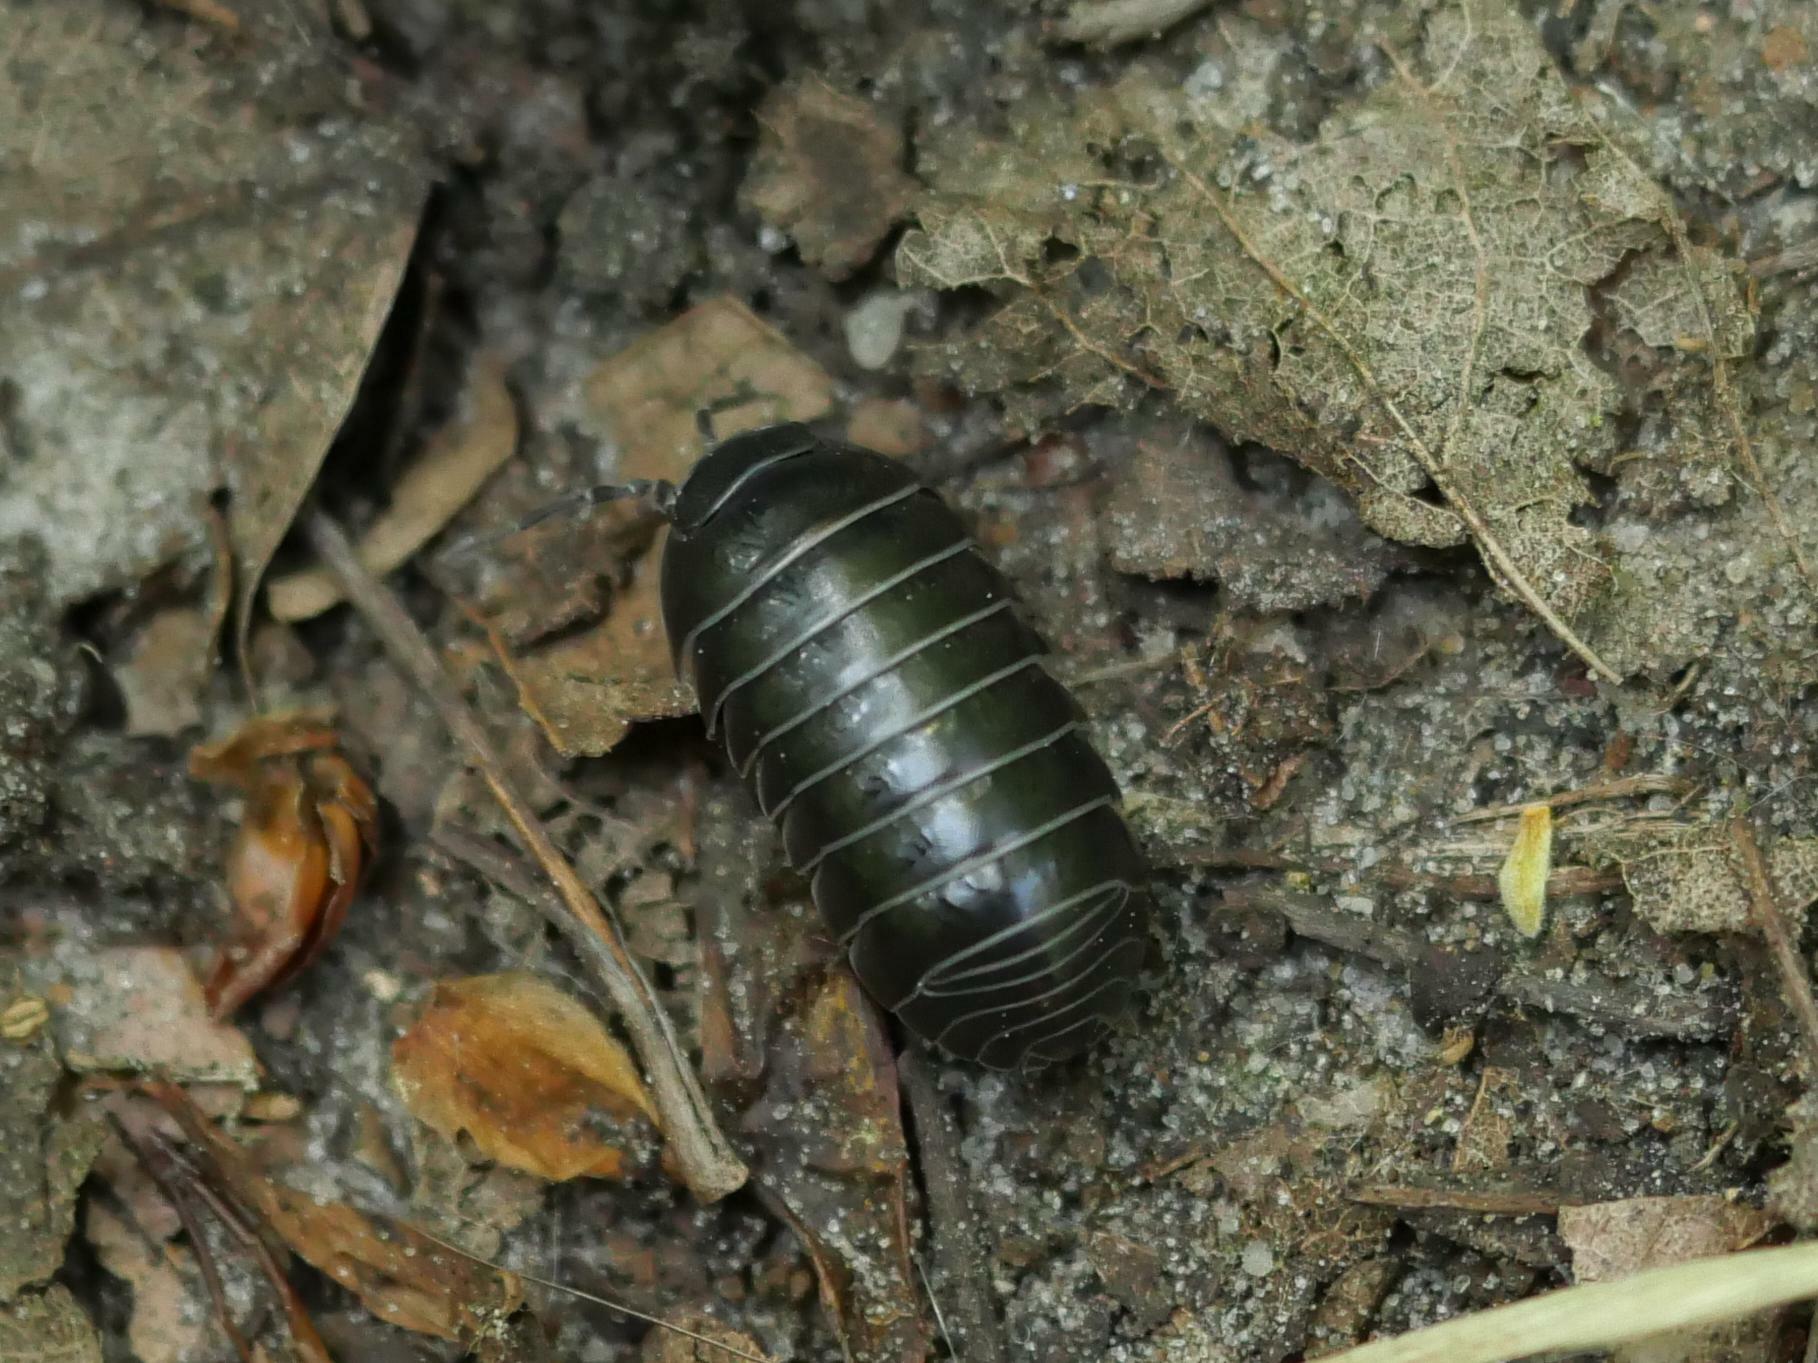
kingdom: Animalia
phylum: Arthropoda
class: Malacostraca
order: Isopoda
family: Armadillidiidae
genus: Armadillidium
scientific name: Armadillidium vulgare
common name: Common pill woodlouse
